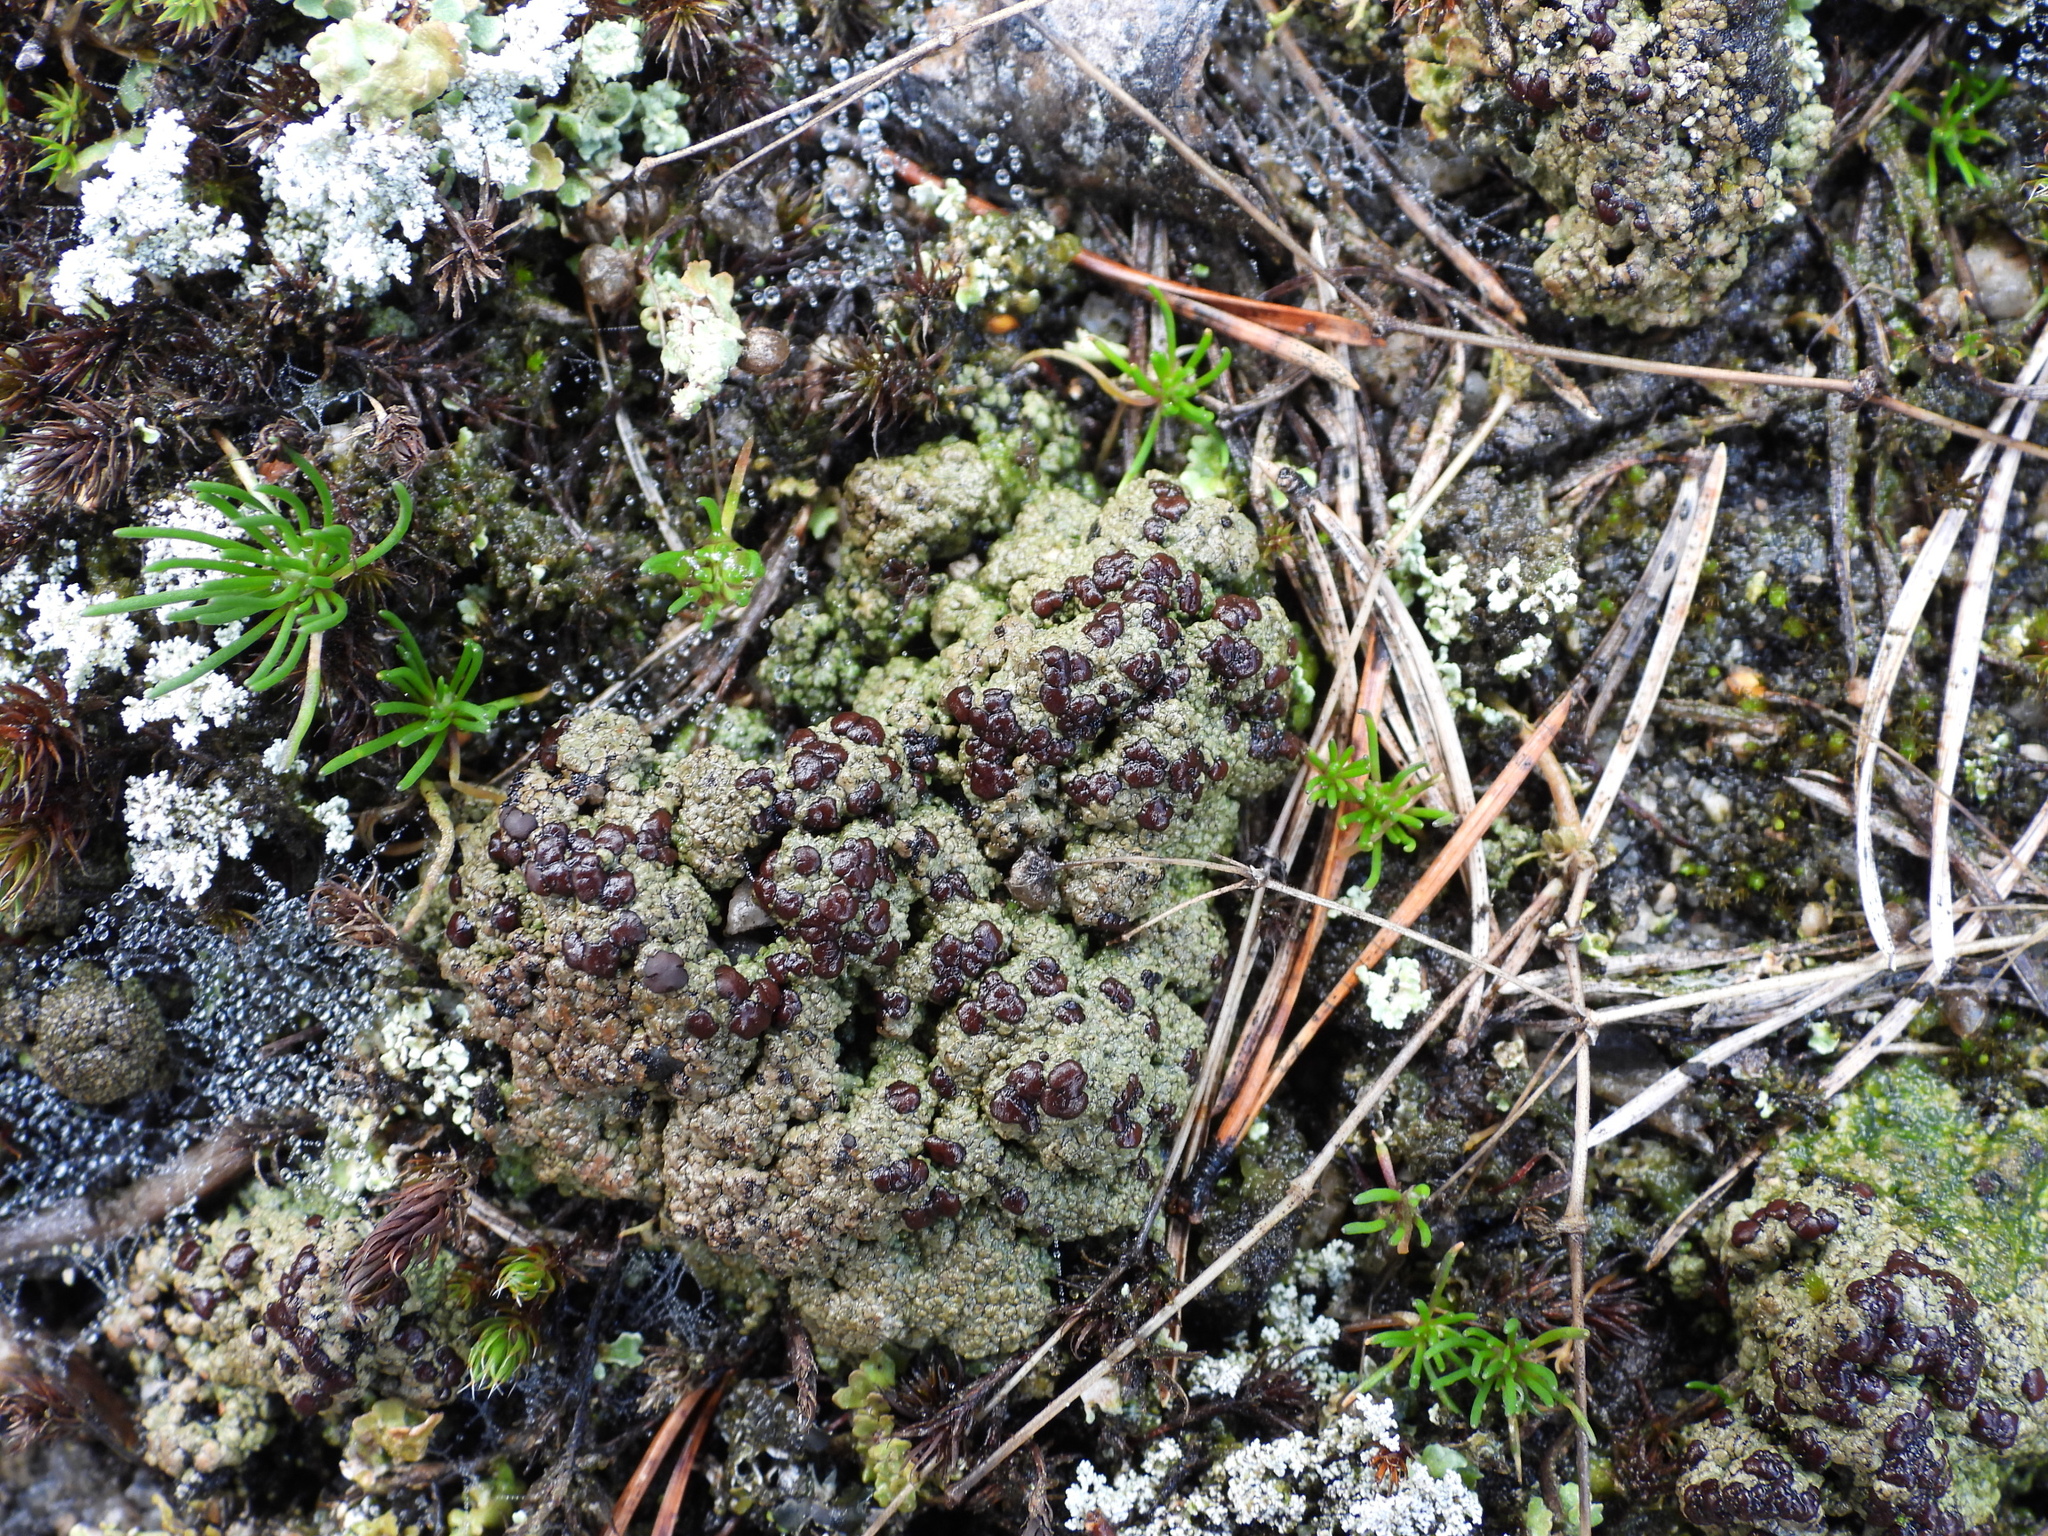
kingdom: Fungi
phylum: Ascomycota
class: Lecanoromycetes
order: Baeomycetales
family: Trapeliaceae
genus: Placynthiella
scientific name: Placynthiella oligotropha
